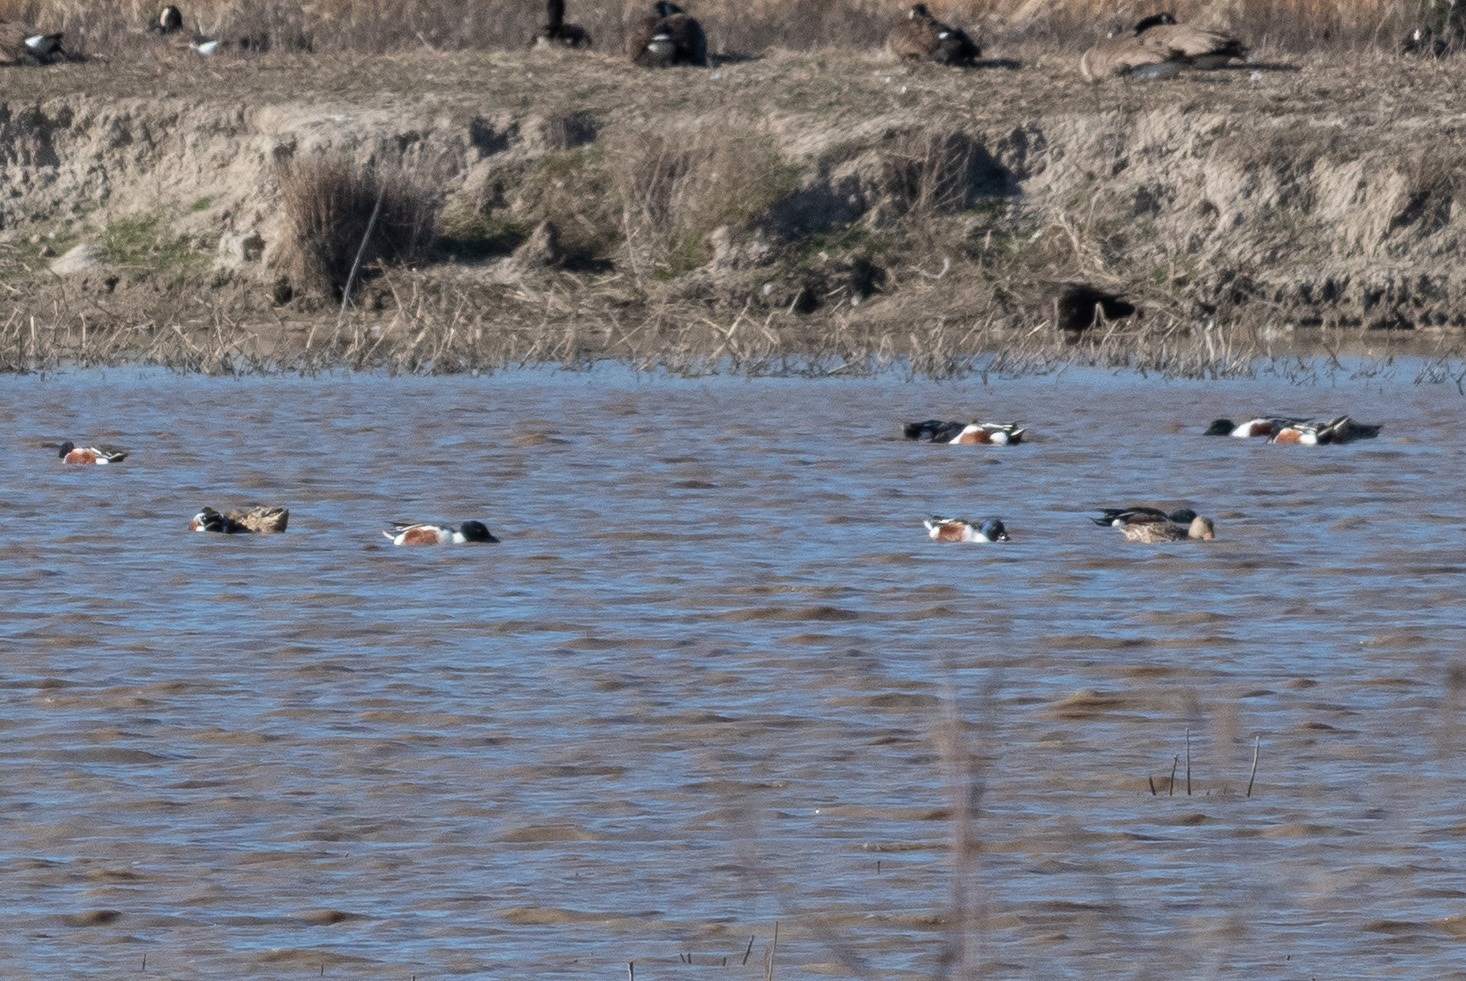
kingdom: Animalia
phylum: Chordata
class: Aves
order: Anseriformes
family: Anatidae
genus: Spatula
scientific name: Spatula clypeata
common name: Northern shoveler
